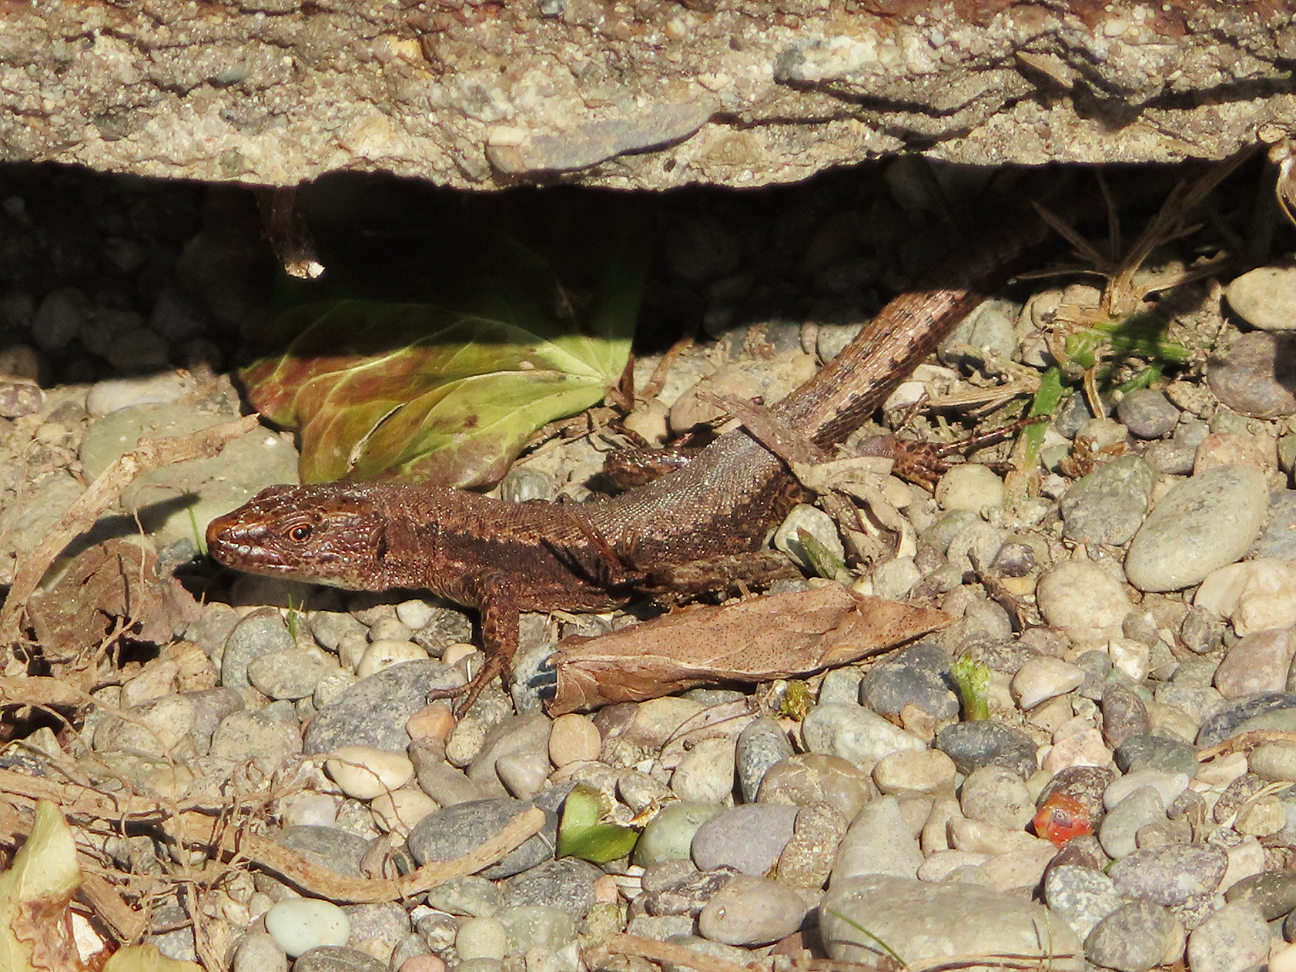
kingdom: Animalia
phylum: Chordata
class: Squamata
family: Lacertidae
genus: Darevskia
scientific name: Darevskia derjugini
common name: Derjugin's lizard
